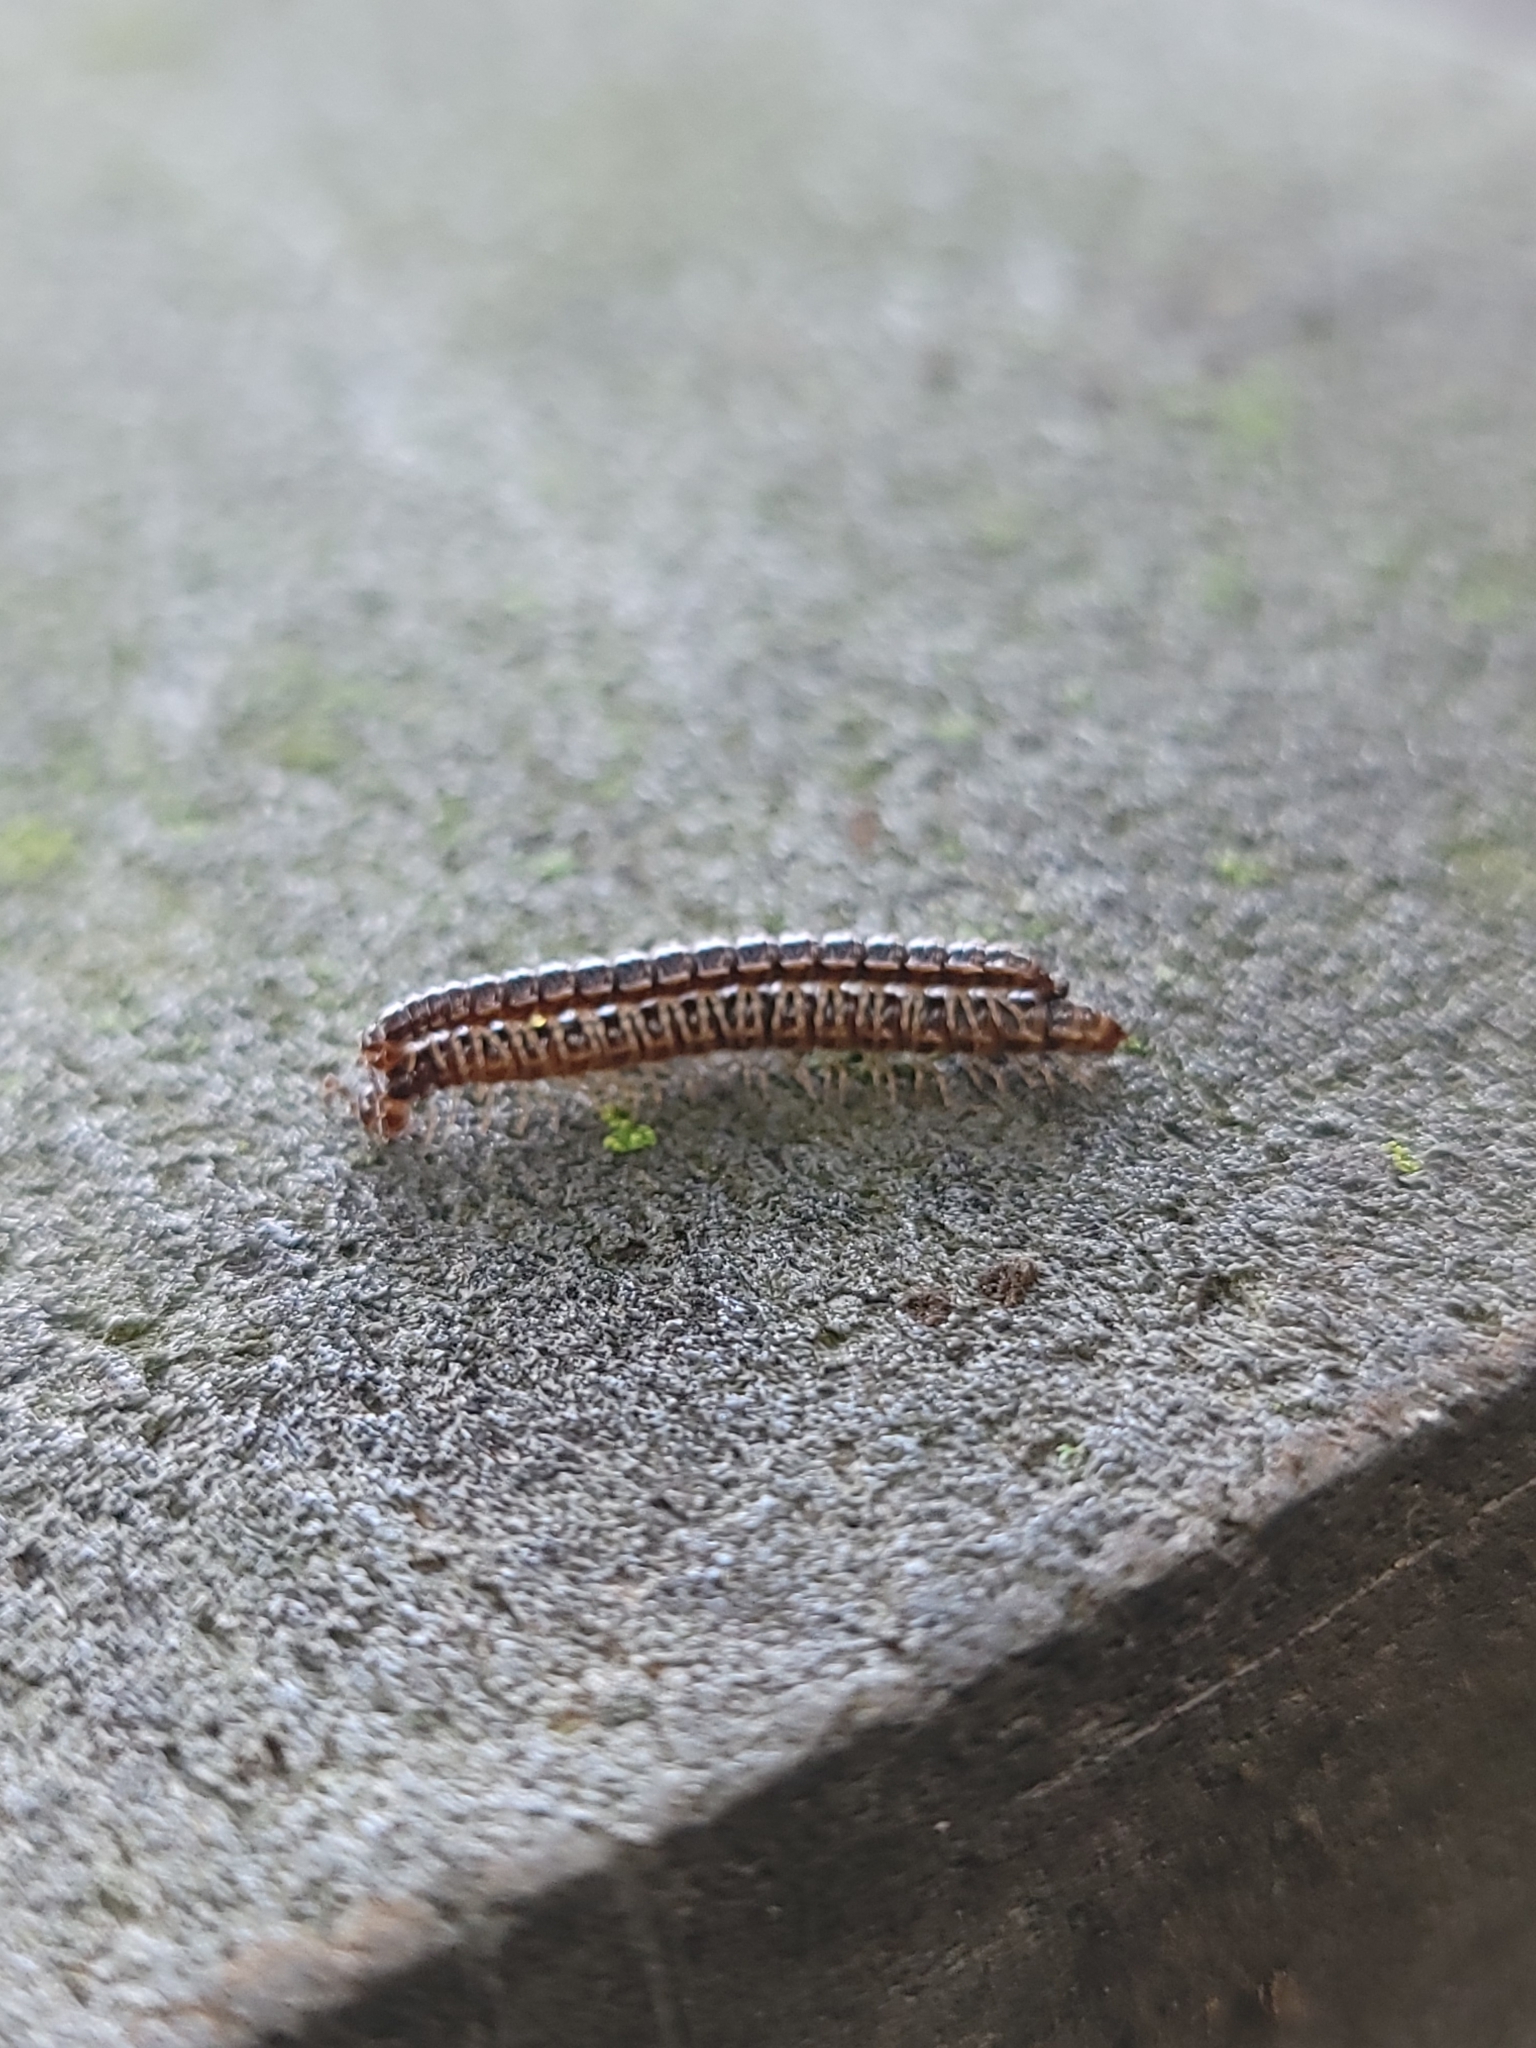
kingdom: Animalia
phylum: Arthropoda
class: Diplopoda
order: Polydesmida
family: Paradoxosomatidae
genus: Oxidus
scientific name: Oxidus gracilis
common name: Greenhouse millipede
